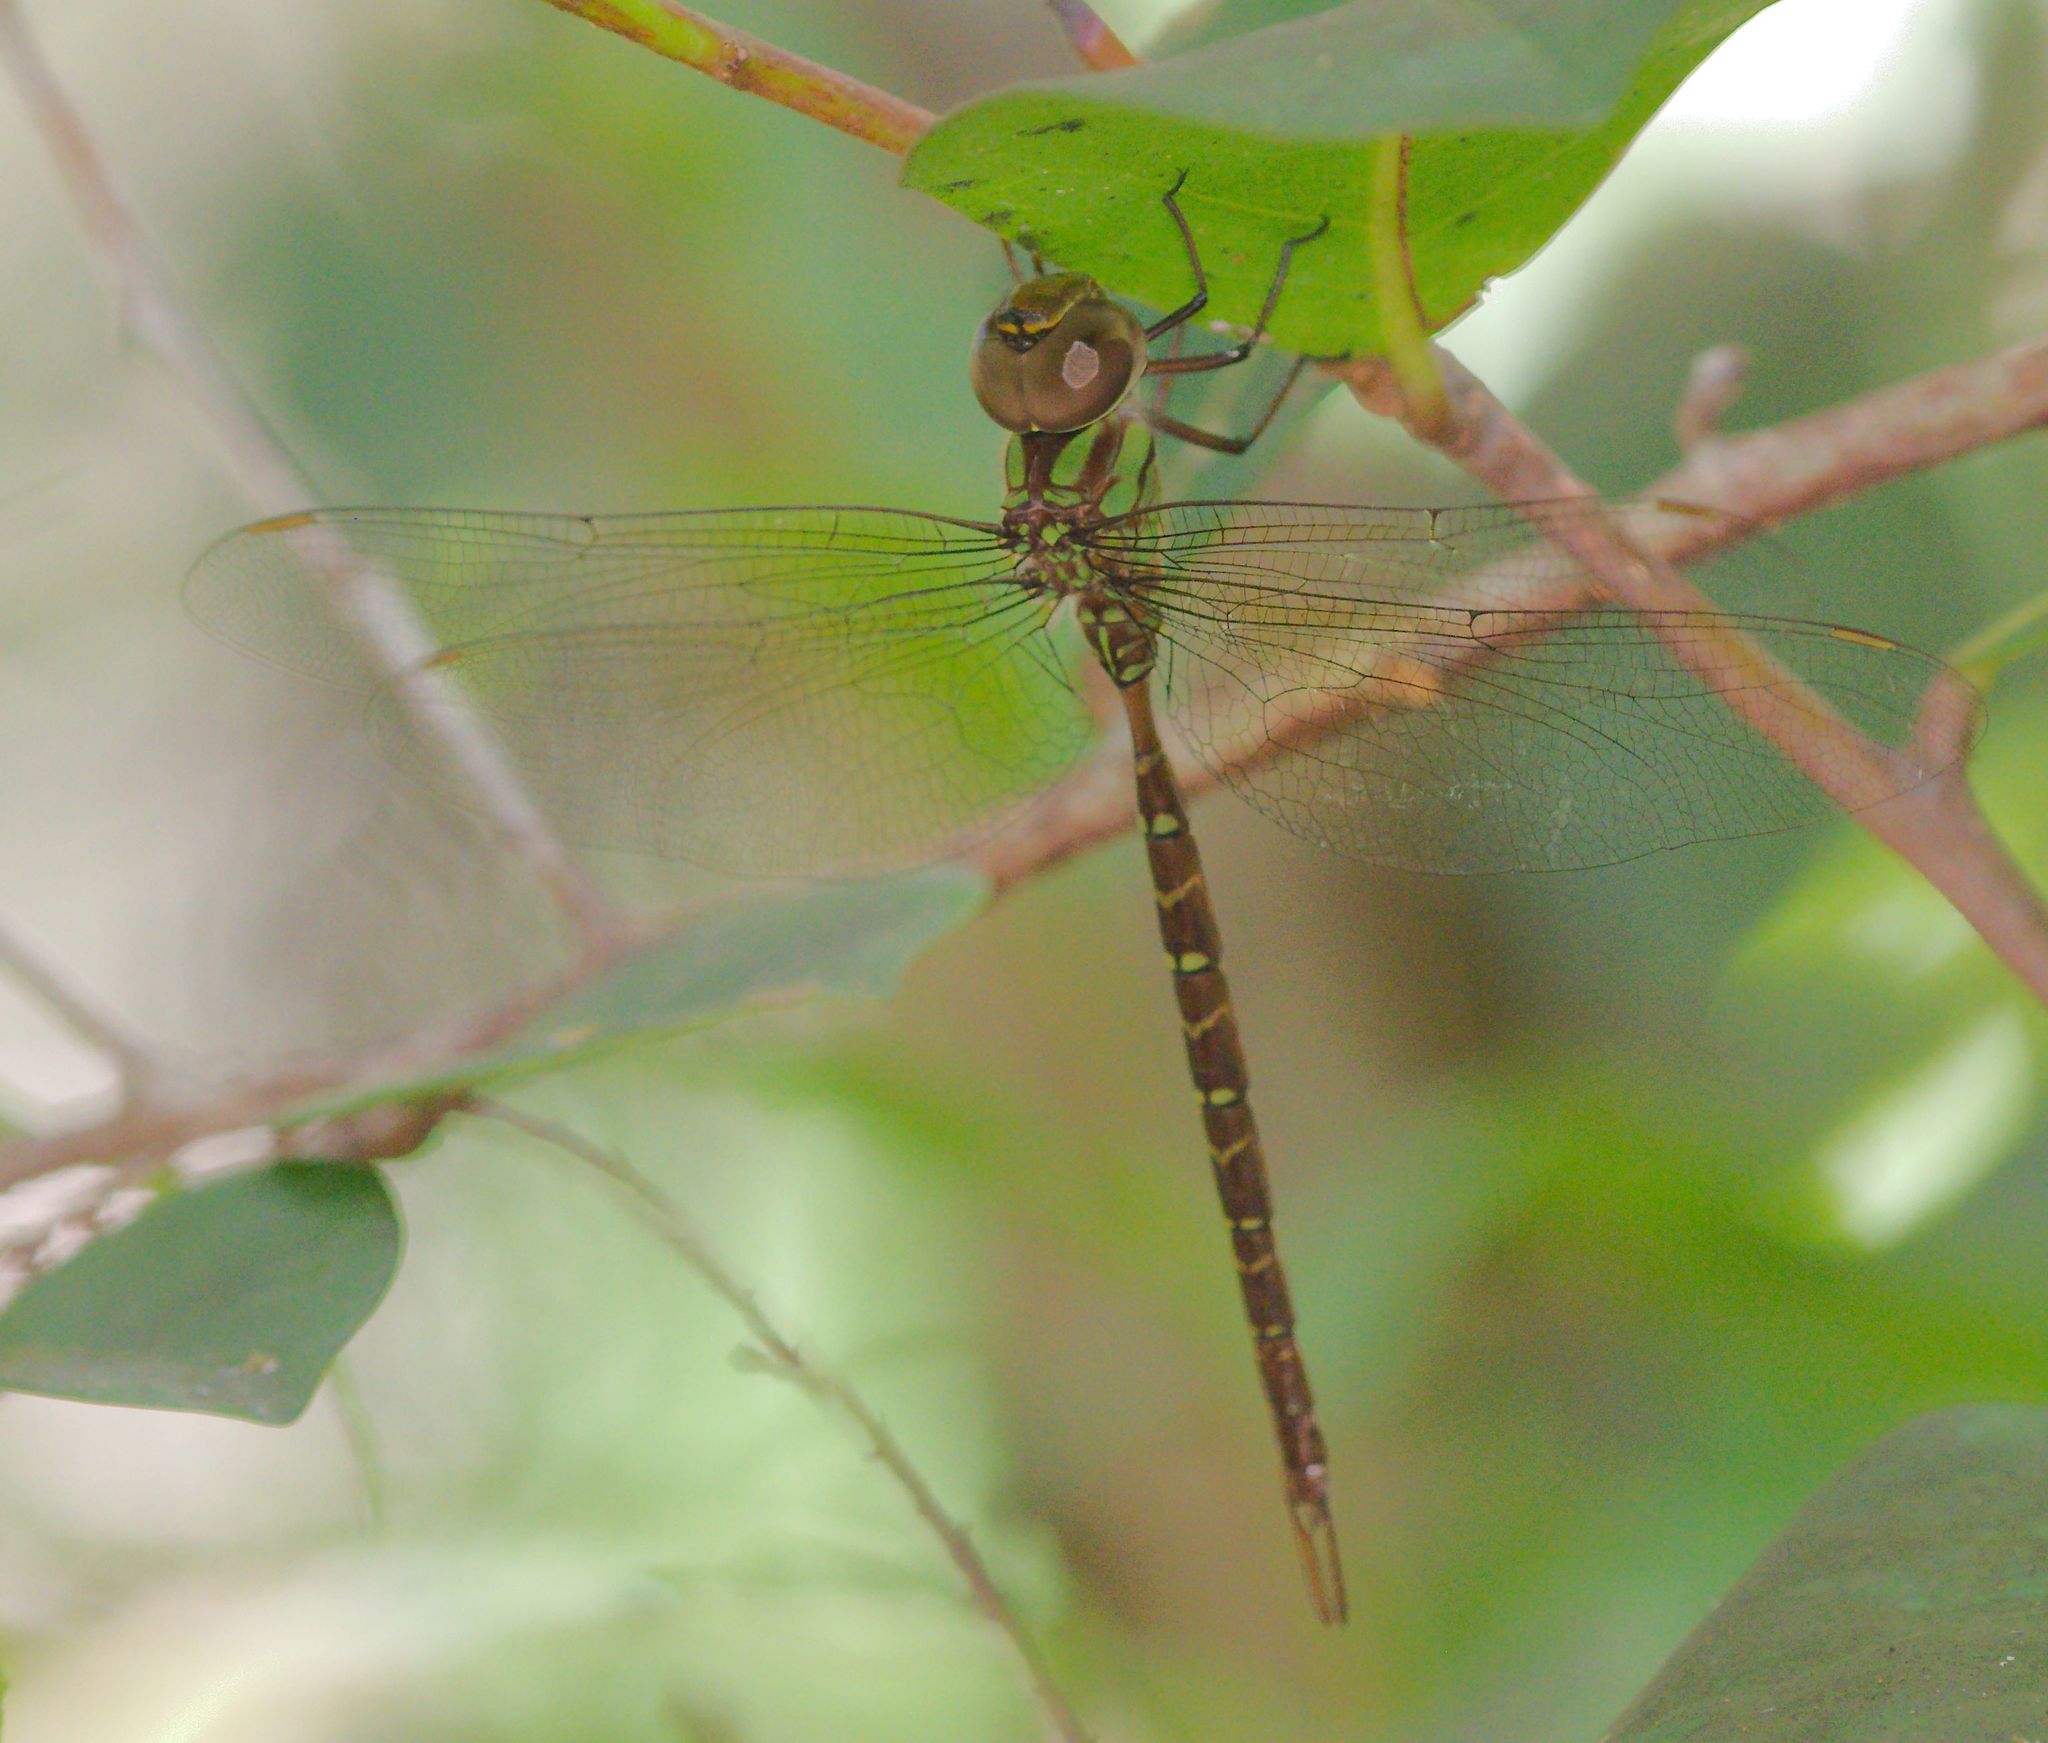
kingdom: Animalia
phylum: Arthropoda
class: Insecta
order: Odonata
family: Aeshnidae
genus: Triacanthagyna
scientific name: Triacanthagyna trifida
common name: Phantom darner
